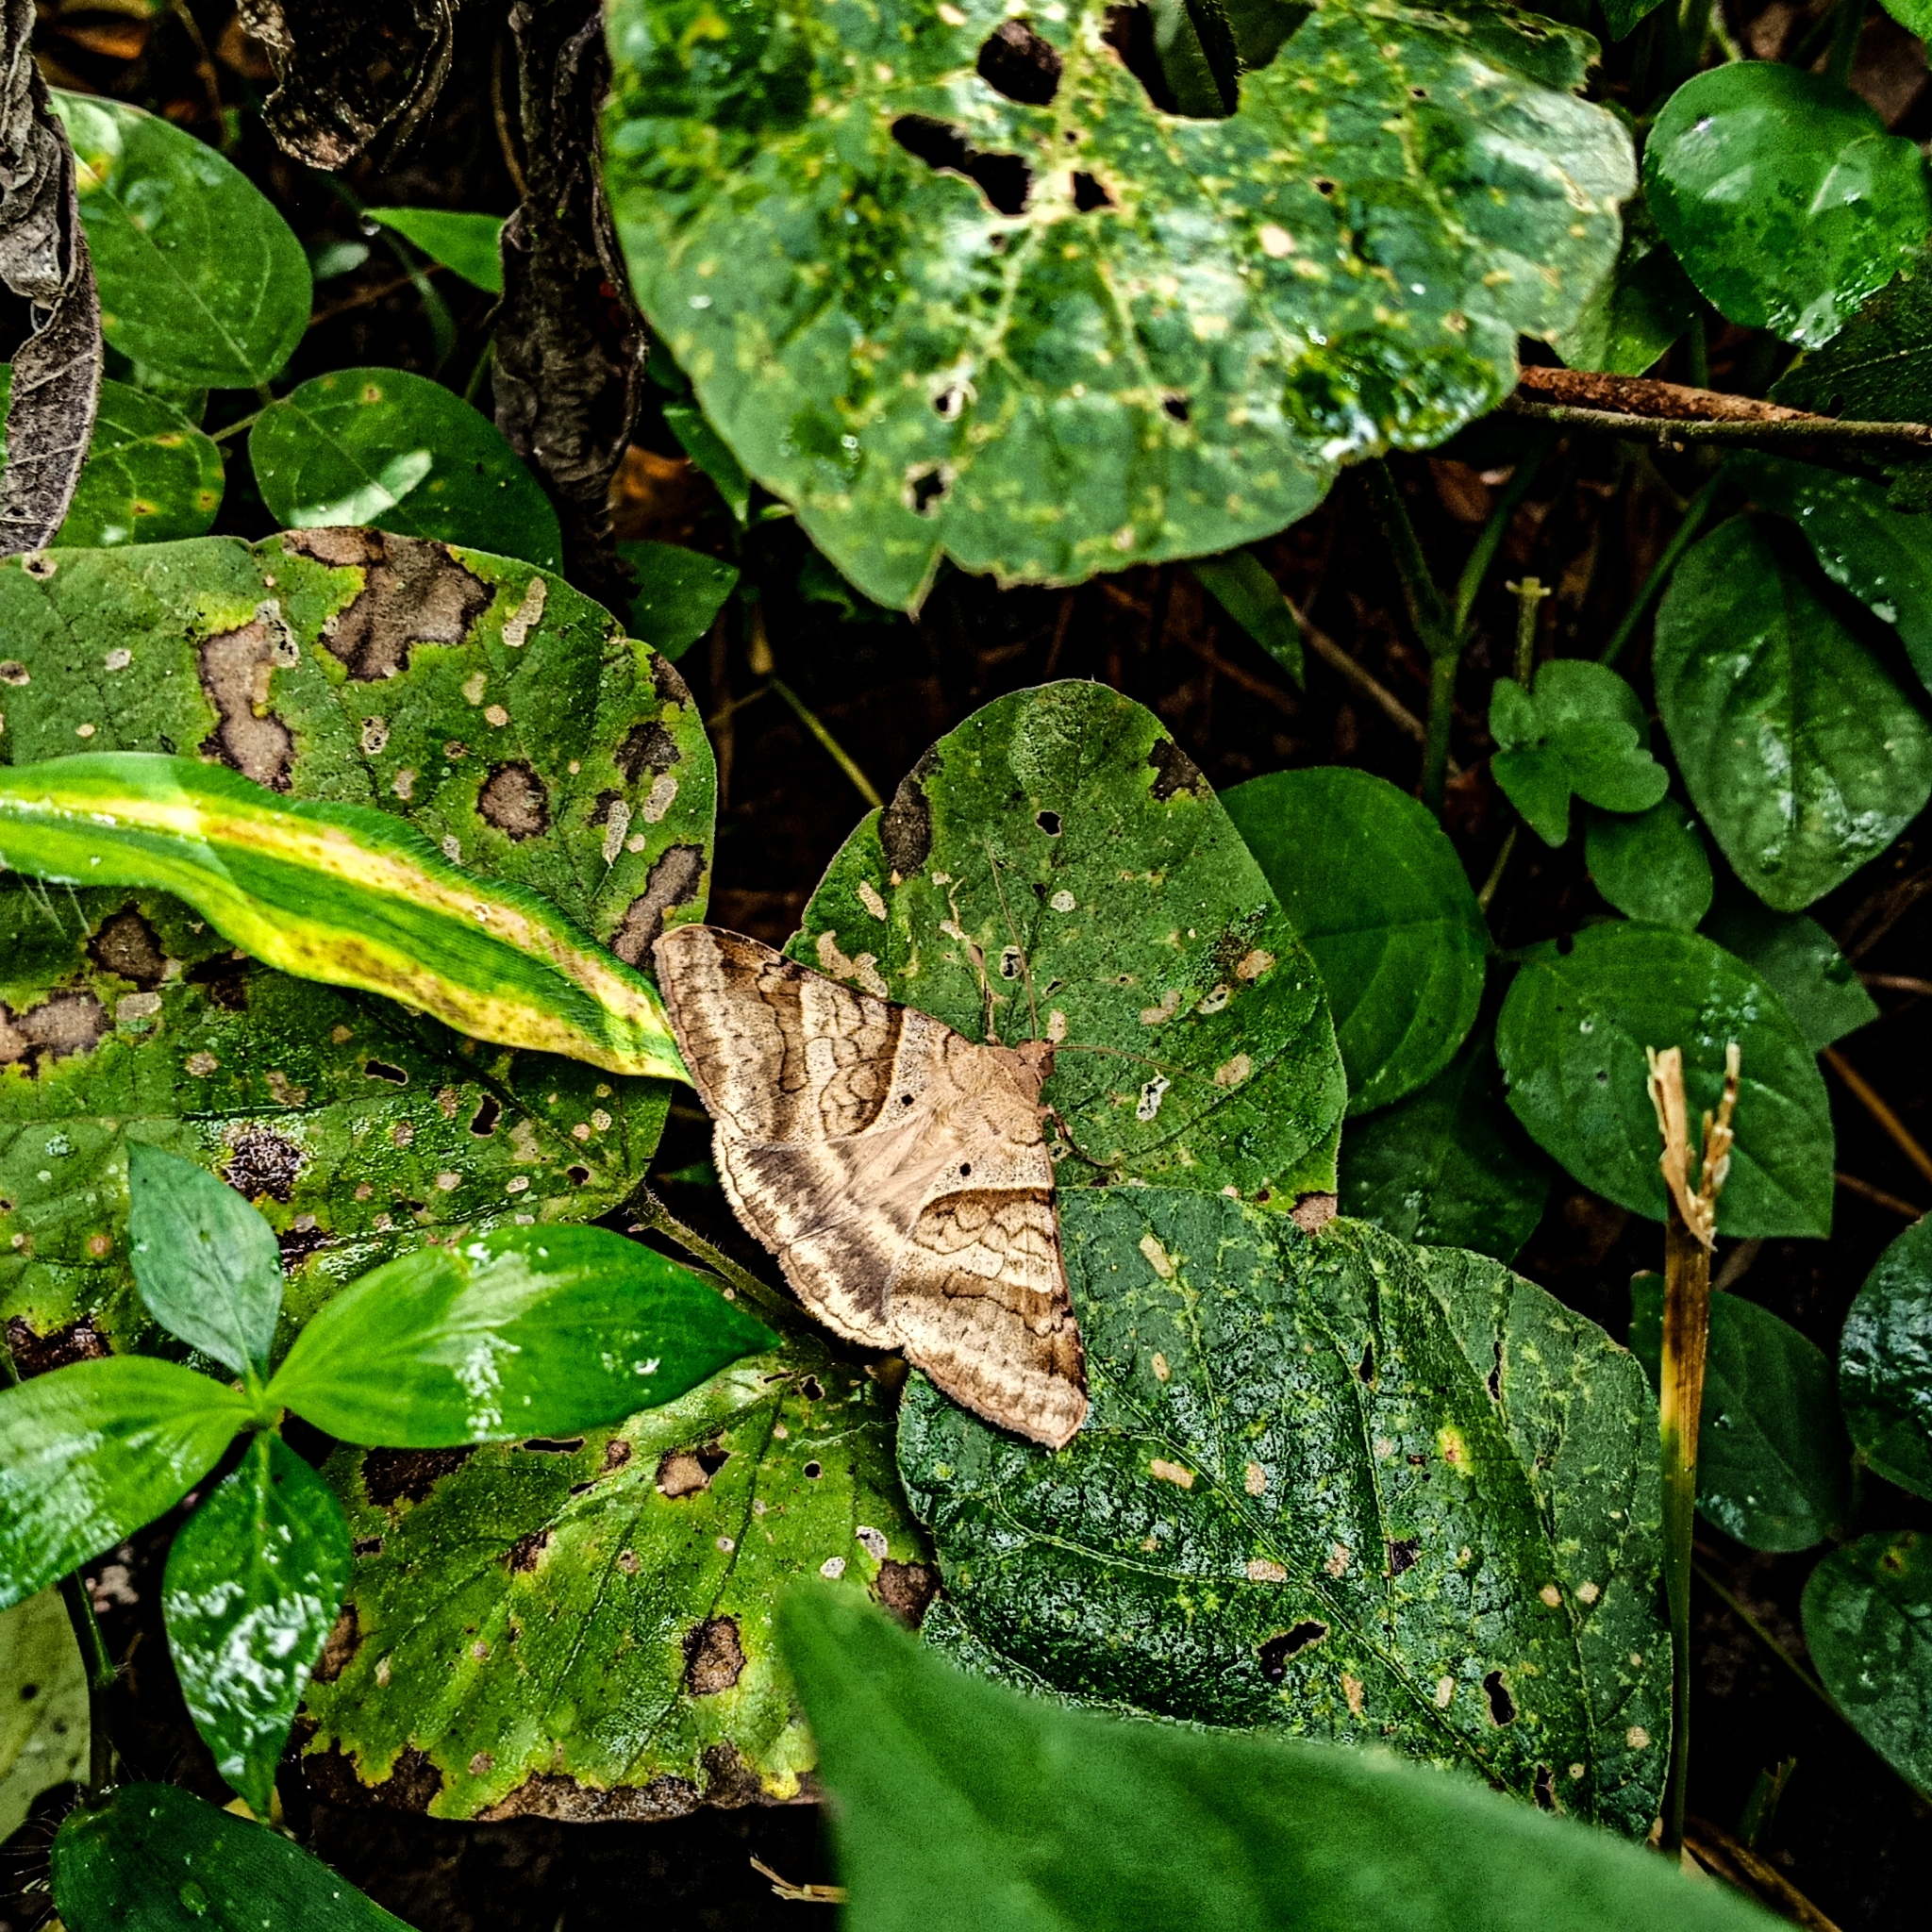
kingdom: Animalia
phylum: Arthropoda
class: Insecta
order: Lepidoptera
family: Erebidae
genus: Mocis
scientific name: Mocis undata
